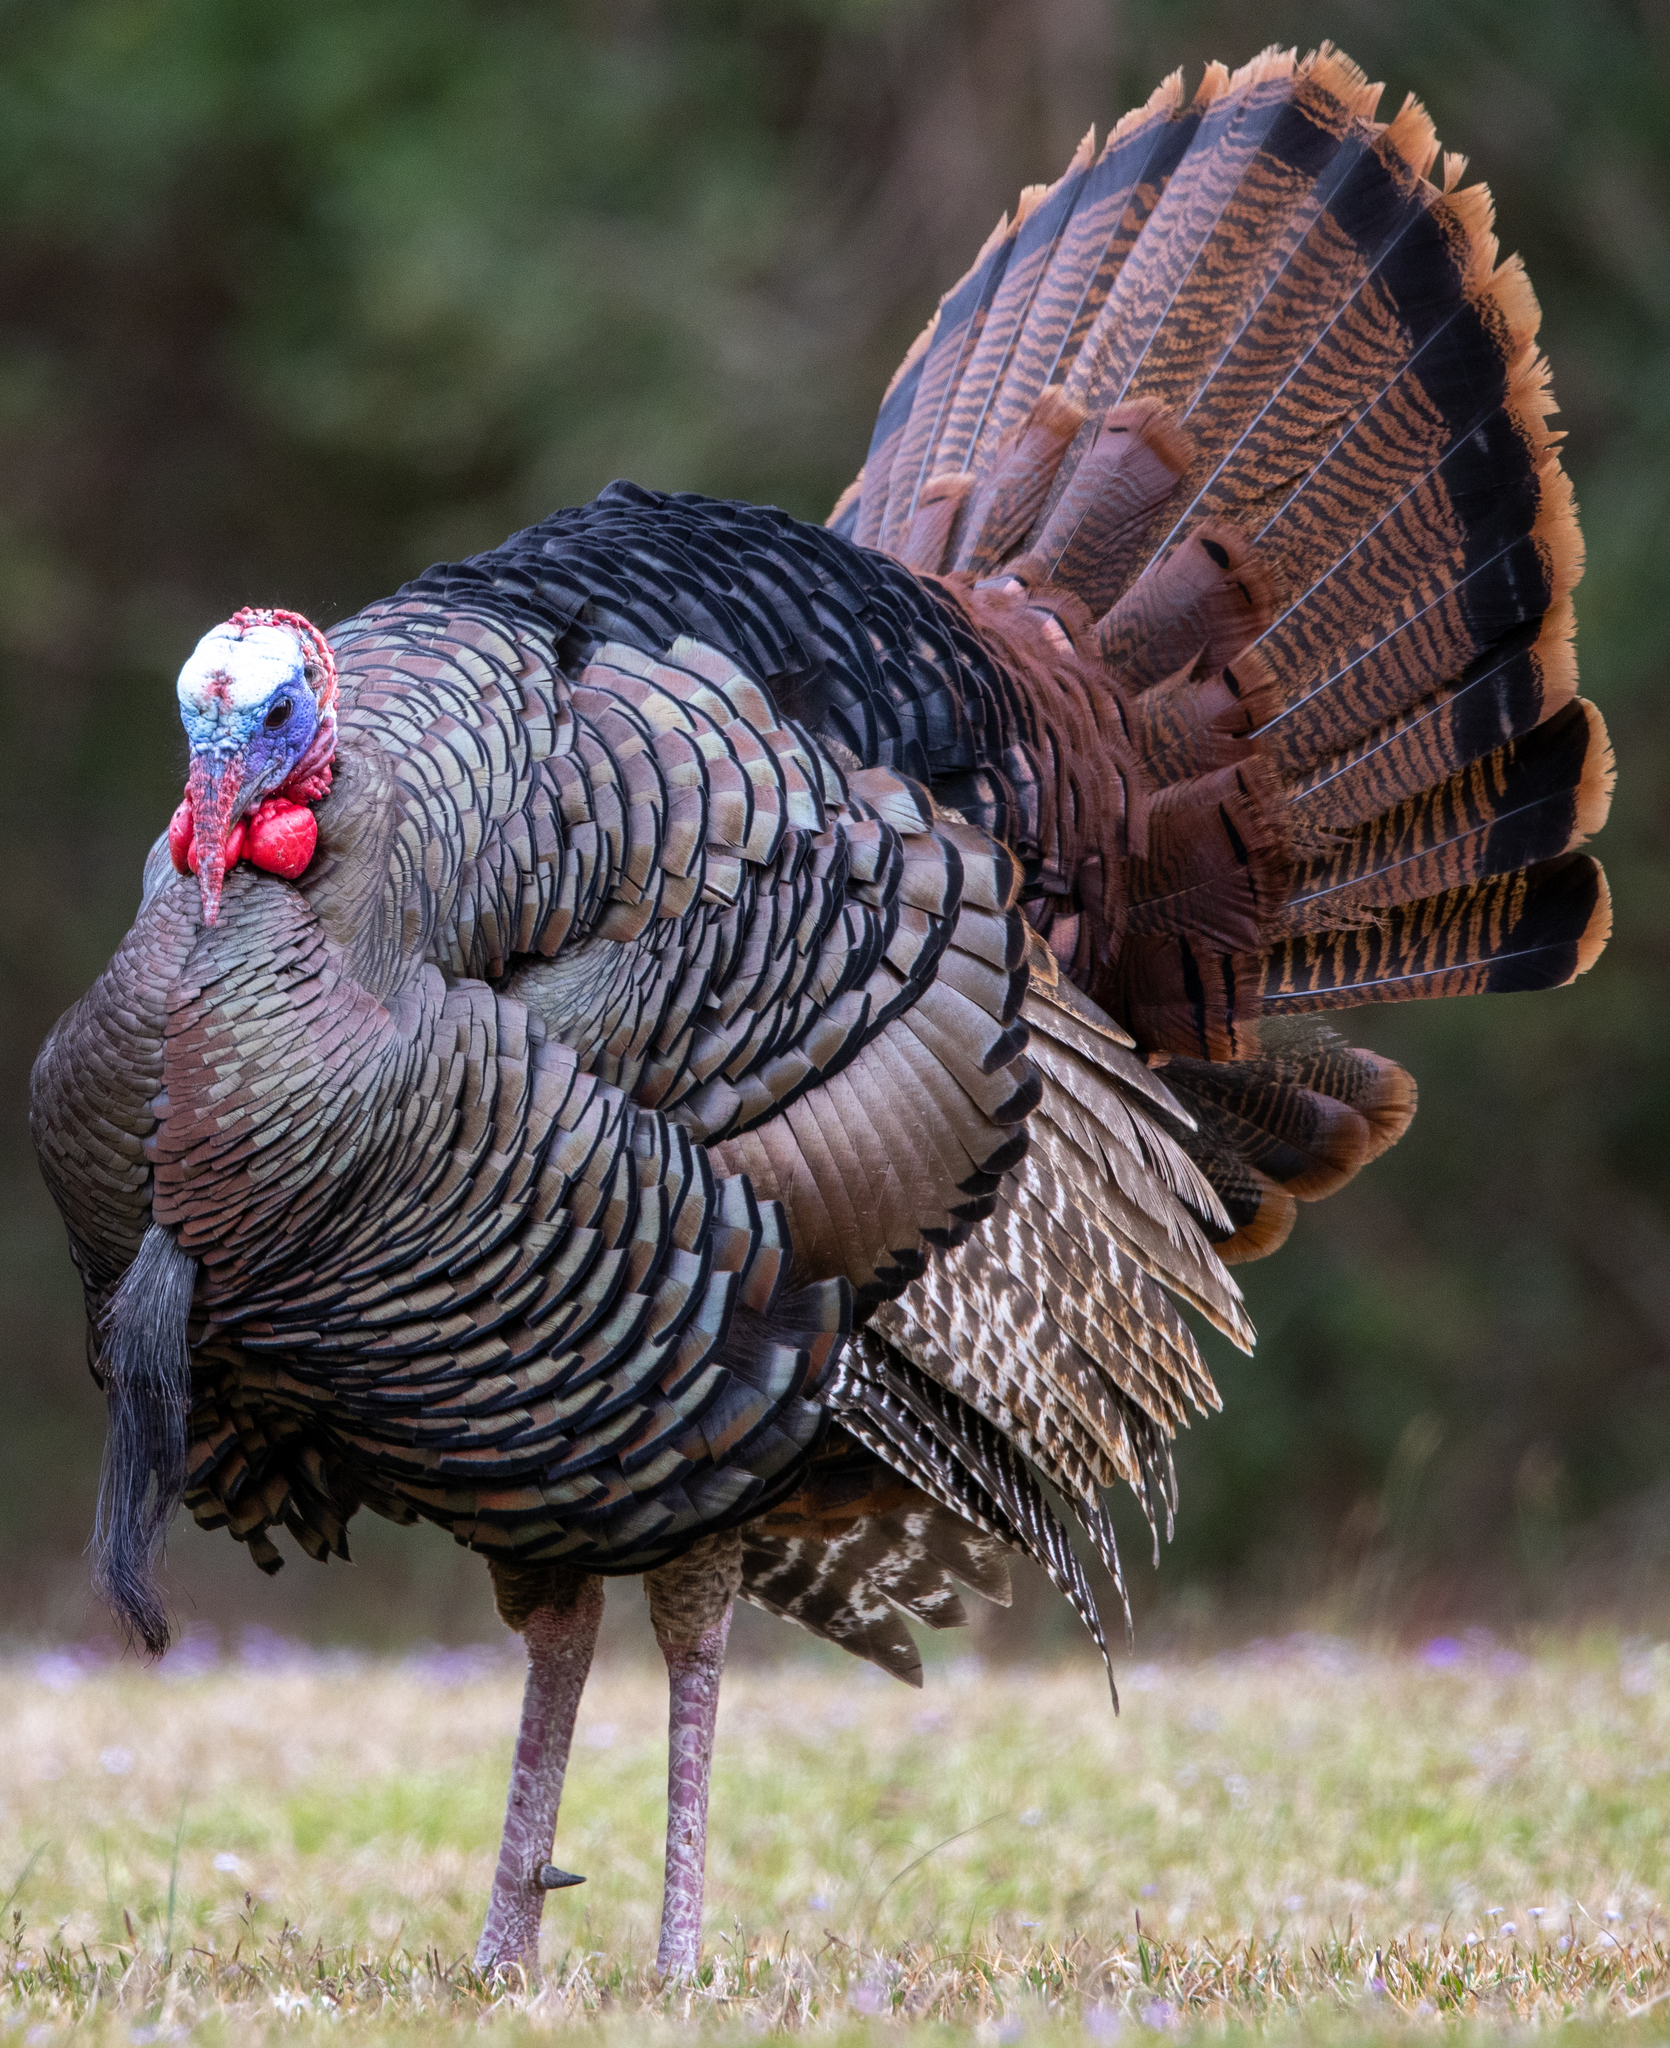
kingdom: Animalia
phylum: Chordata
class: Aves
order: Galliformes
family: Phasianidae
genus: Meleagris
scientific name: Meleagris gallopavo
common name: Wild turkey
